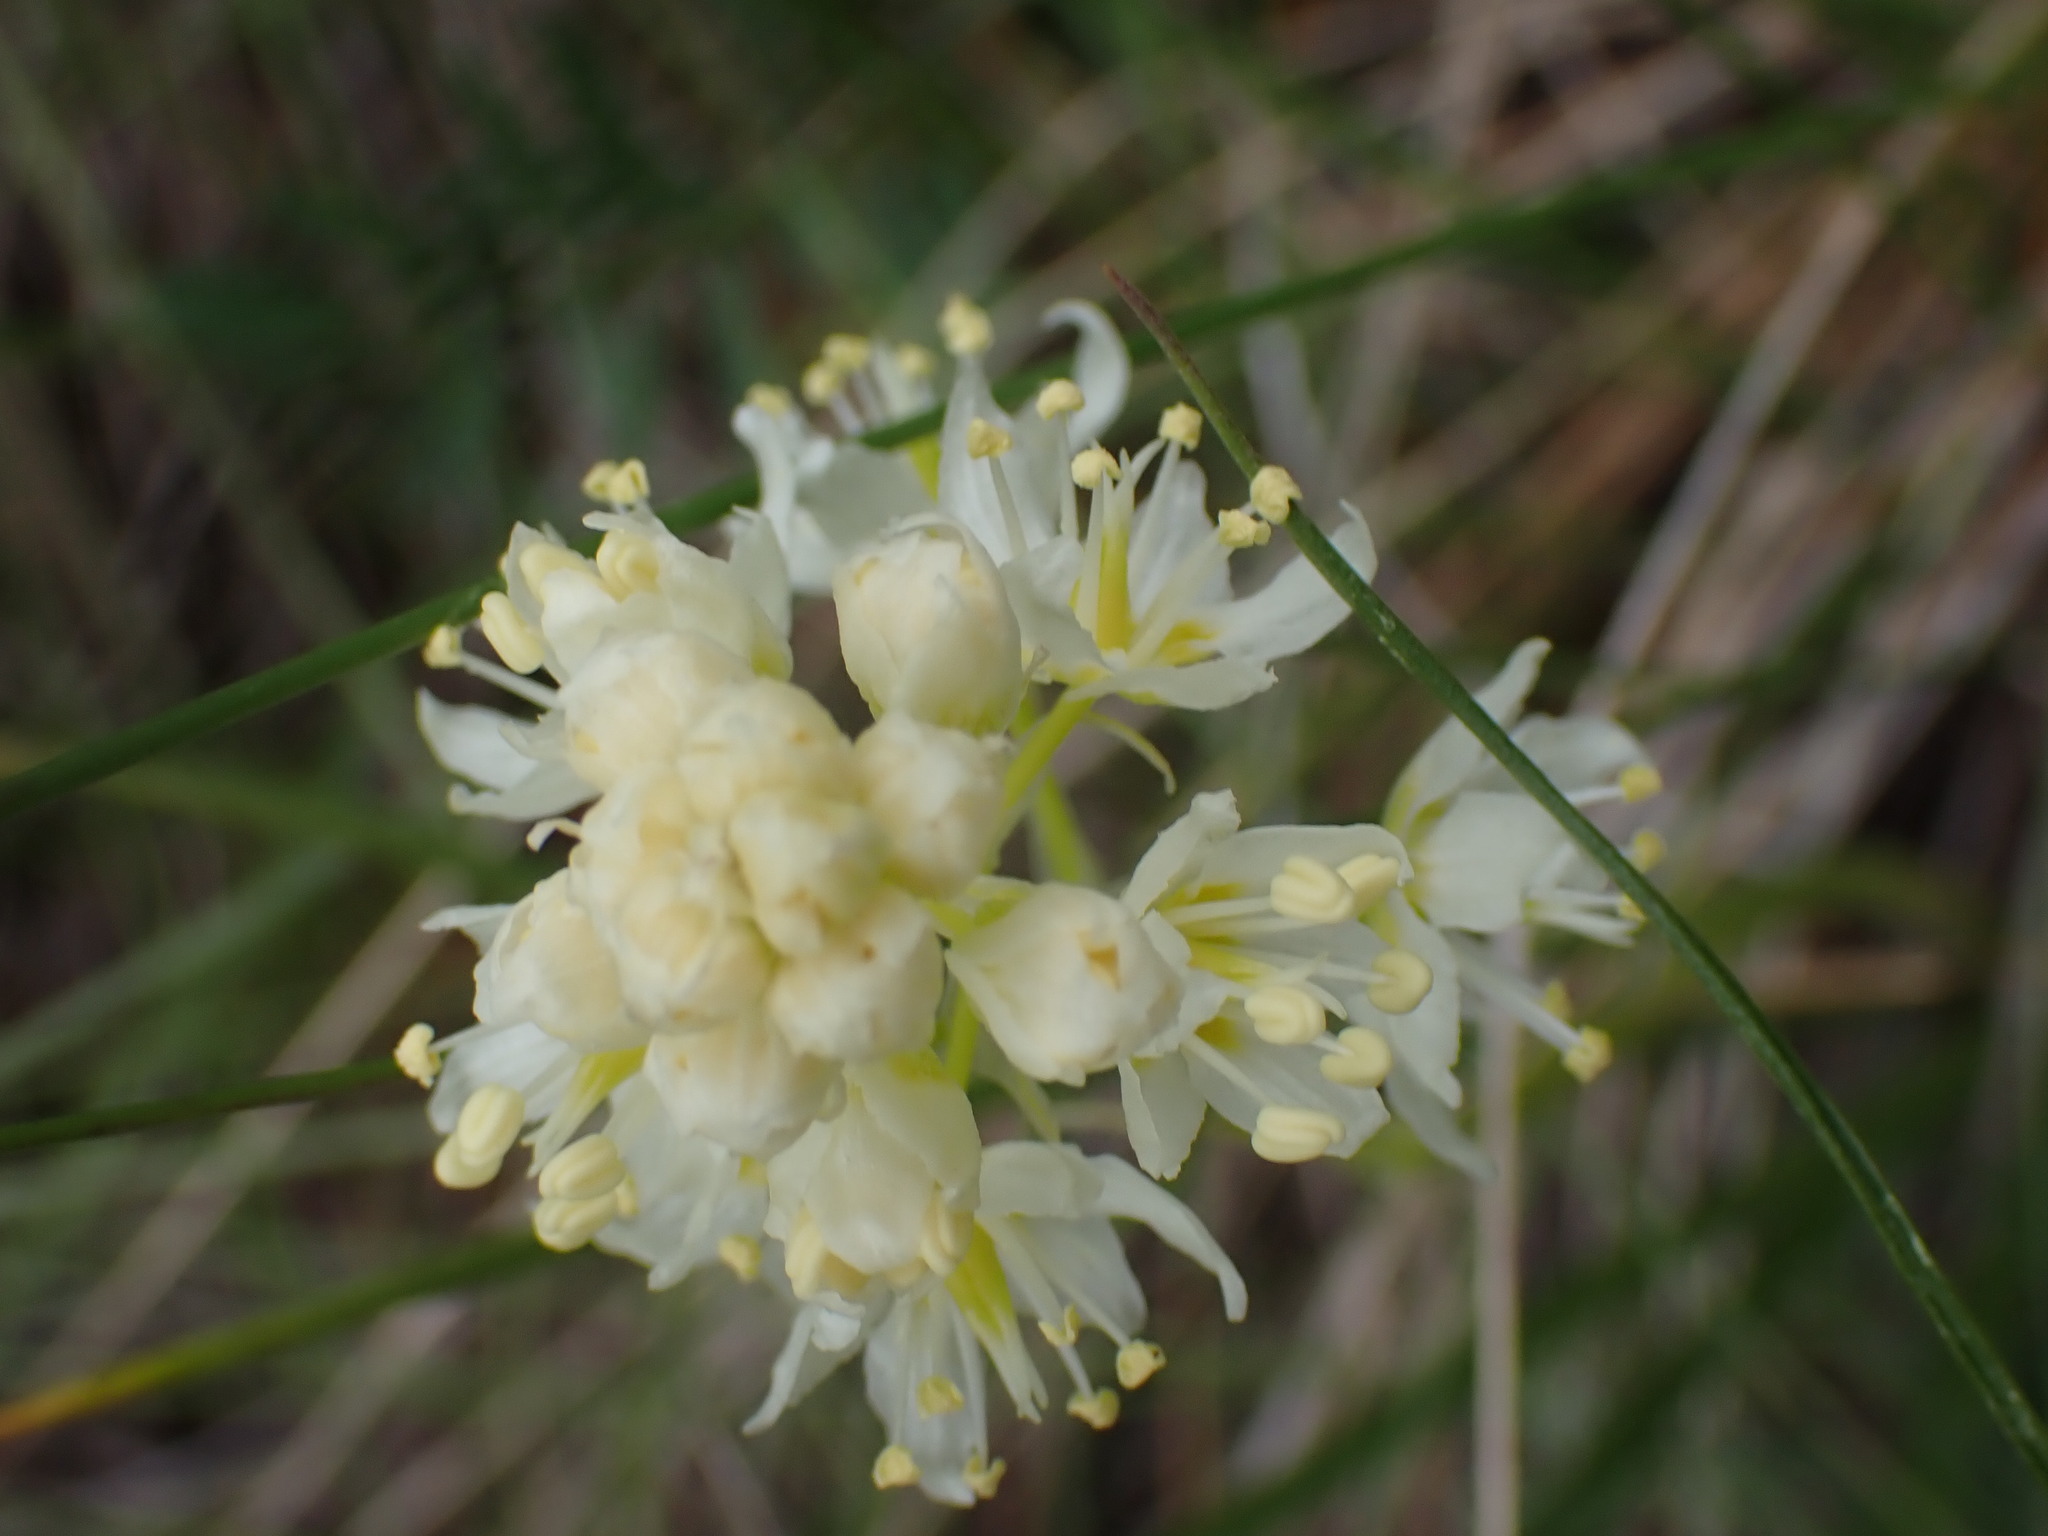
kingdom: Plantae
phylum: Tracheophyta
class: Liliopsida
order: Liliales
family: Melanthiaceae
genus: Toxicoscordion
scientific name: Toxicoscordion venenosum
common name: Meadow death camas
